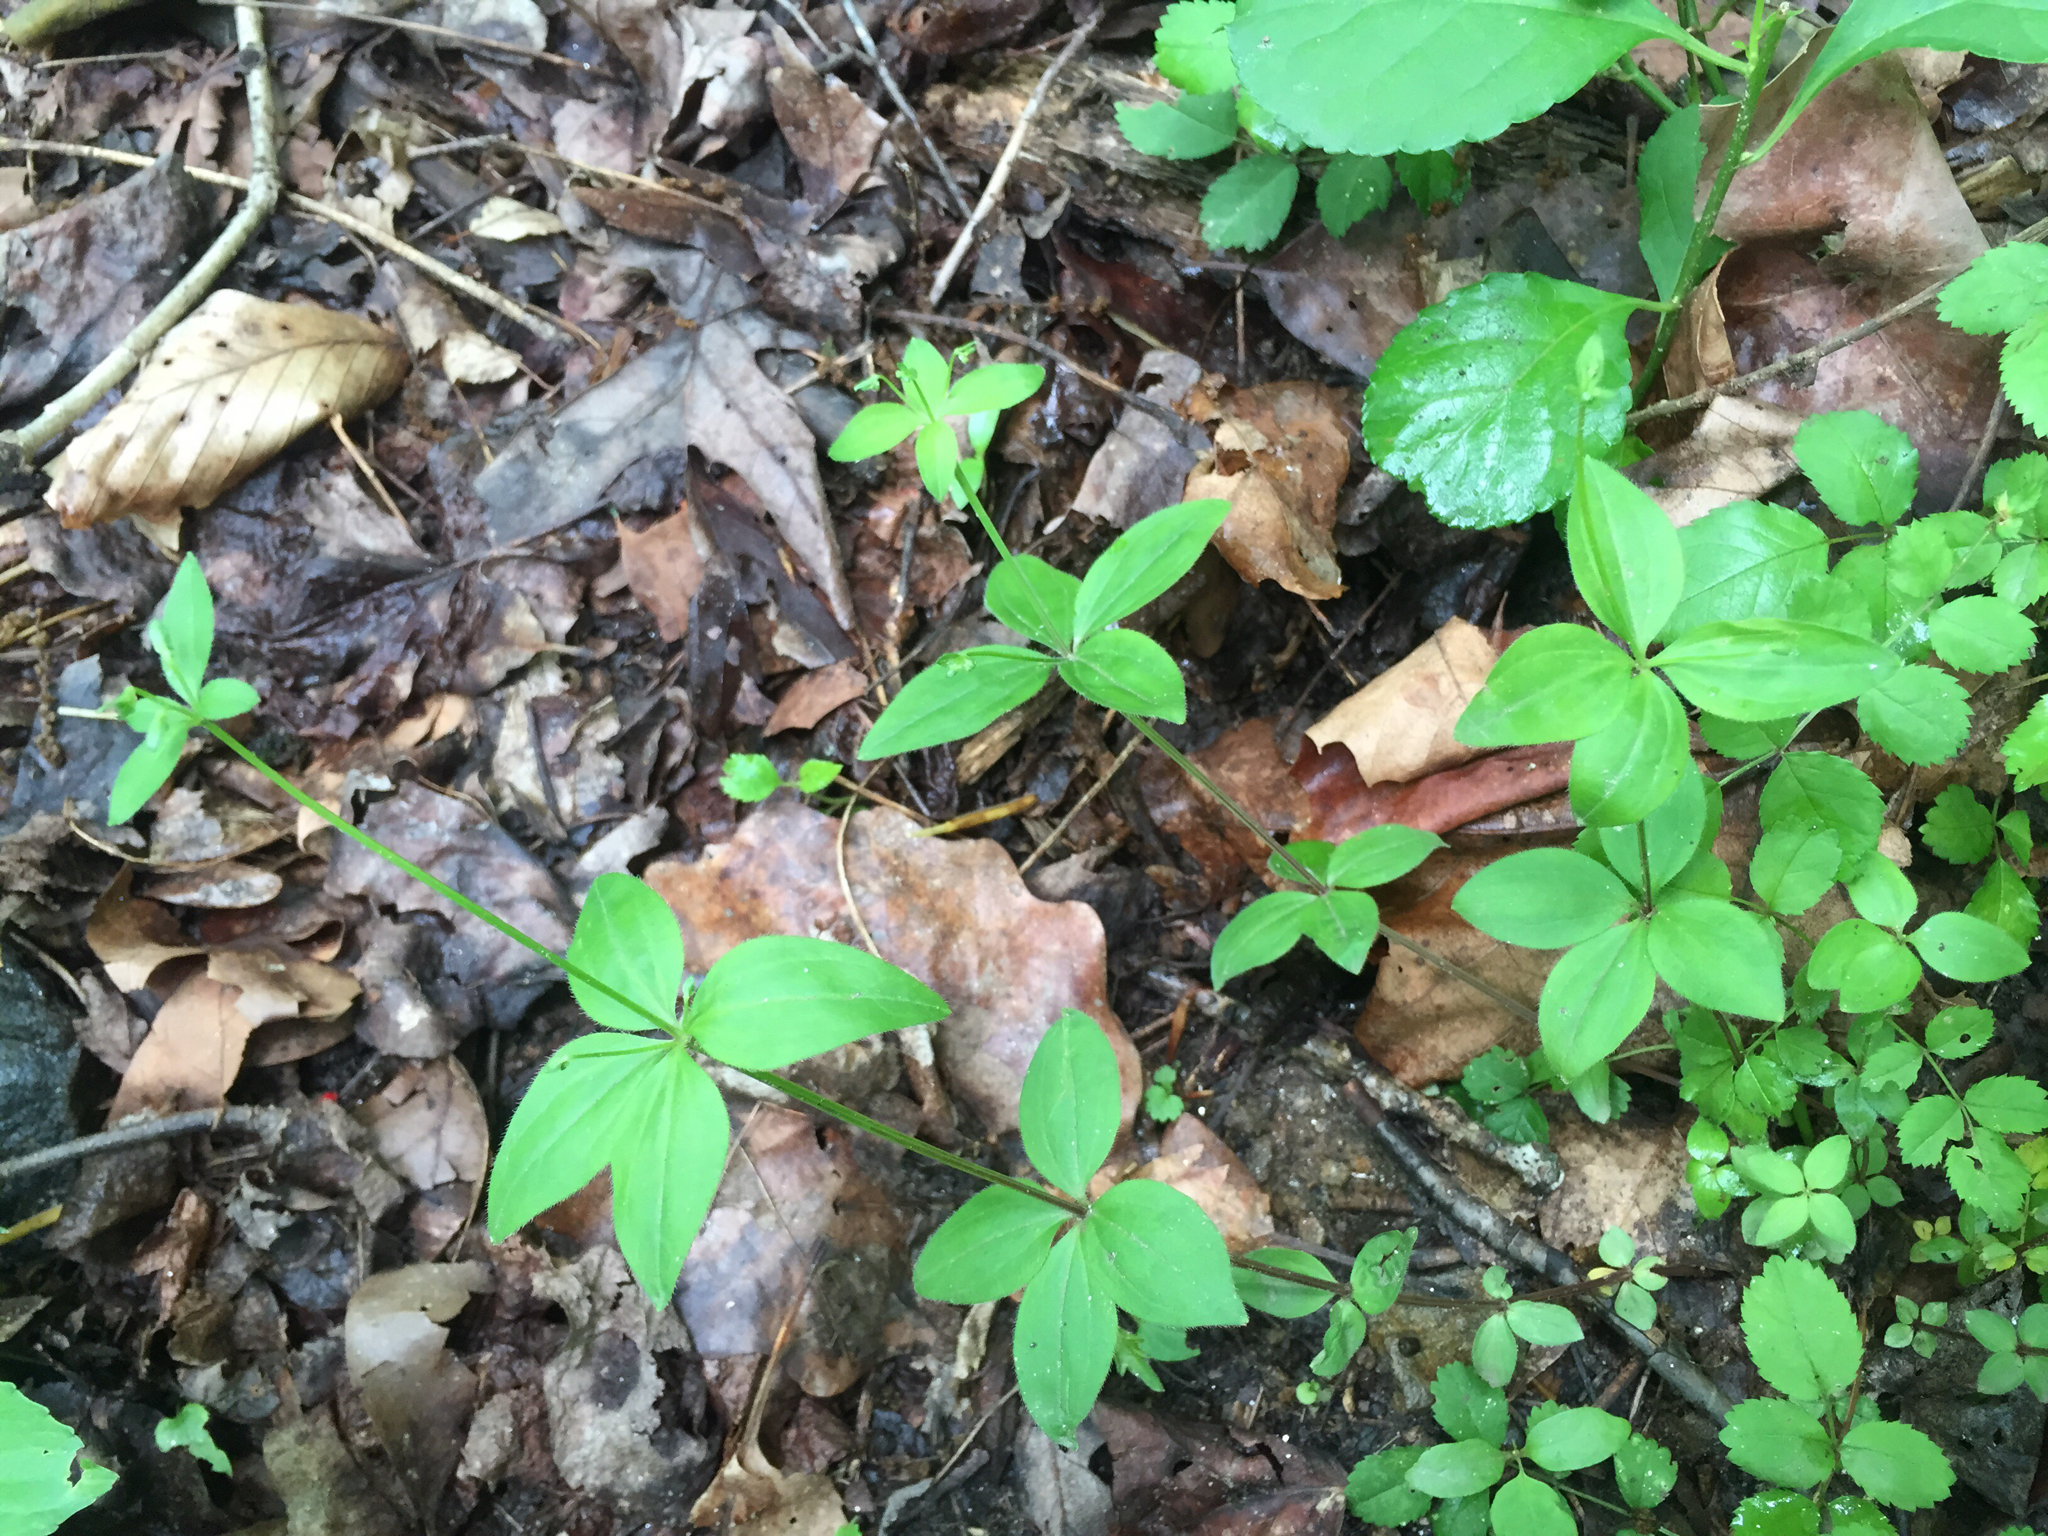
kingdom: Plantae
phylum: Tracheophyta
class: Magnoliopsida
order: Gentianales
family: Rubiaceae
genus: Galium
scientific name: Galium circaezans
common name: Forest bedstraw
